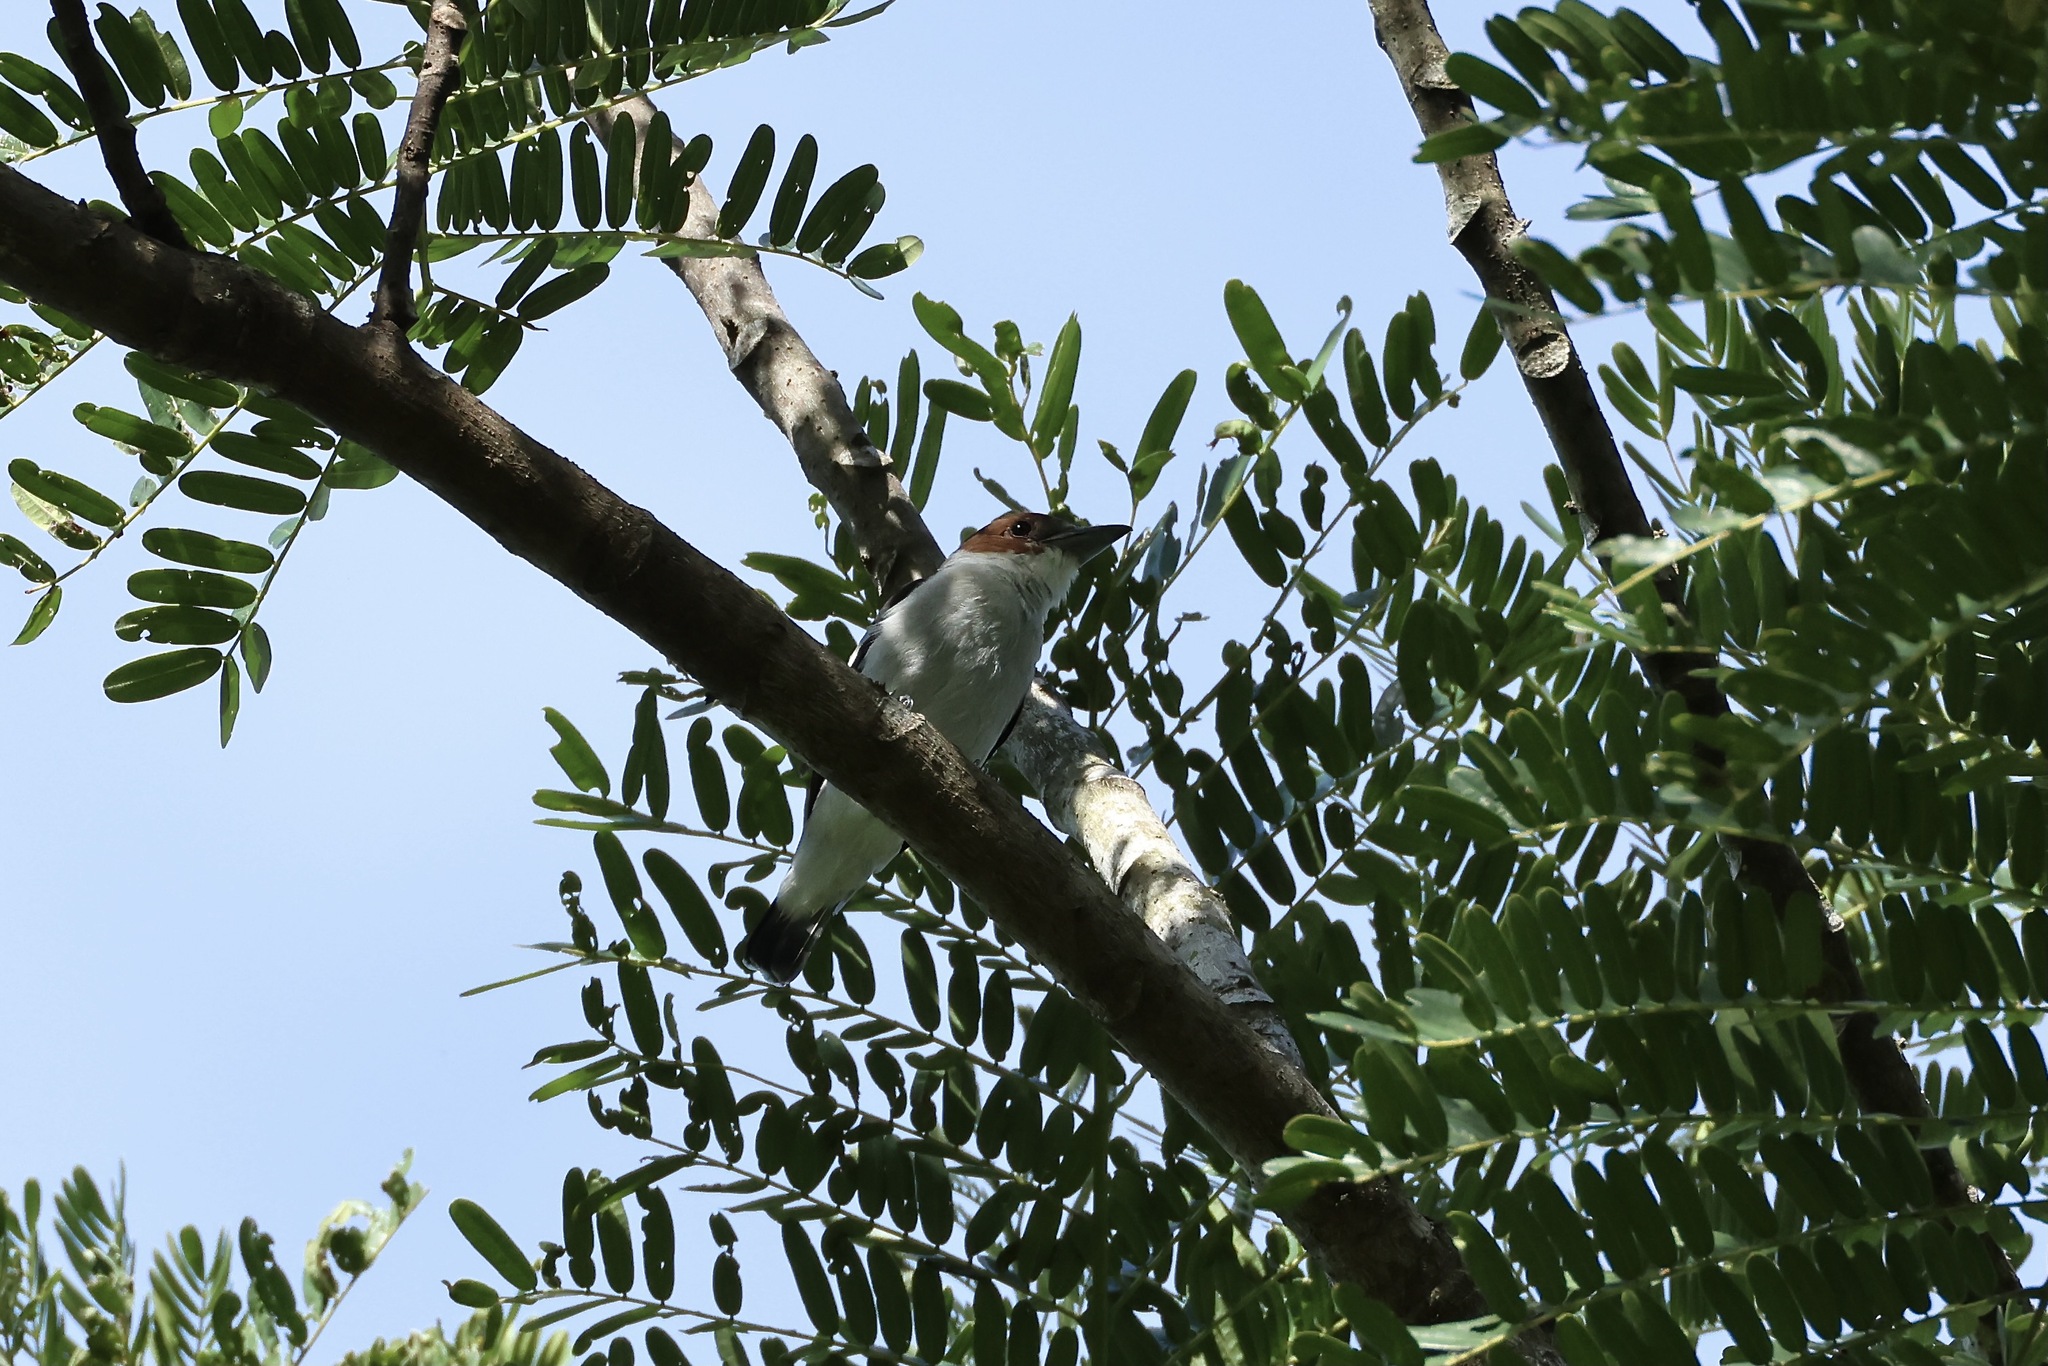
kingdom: Animalia
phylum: Chordata
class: Aves
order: Passeriformes
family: Cotingidae
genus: Tityra
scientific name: Tityra inquisitor
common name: Black-crowned tityra
